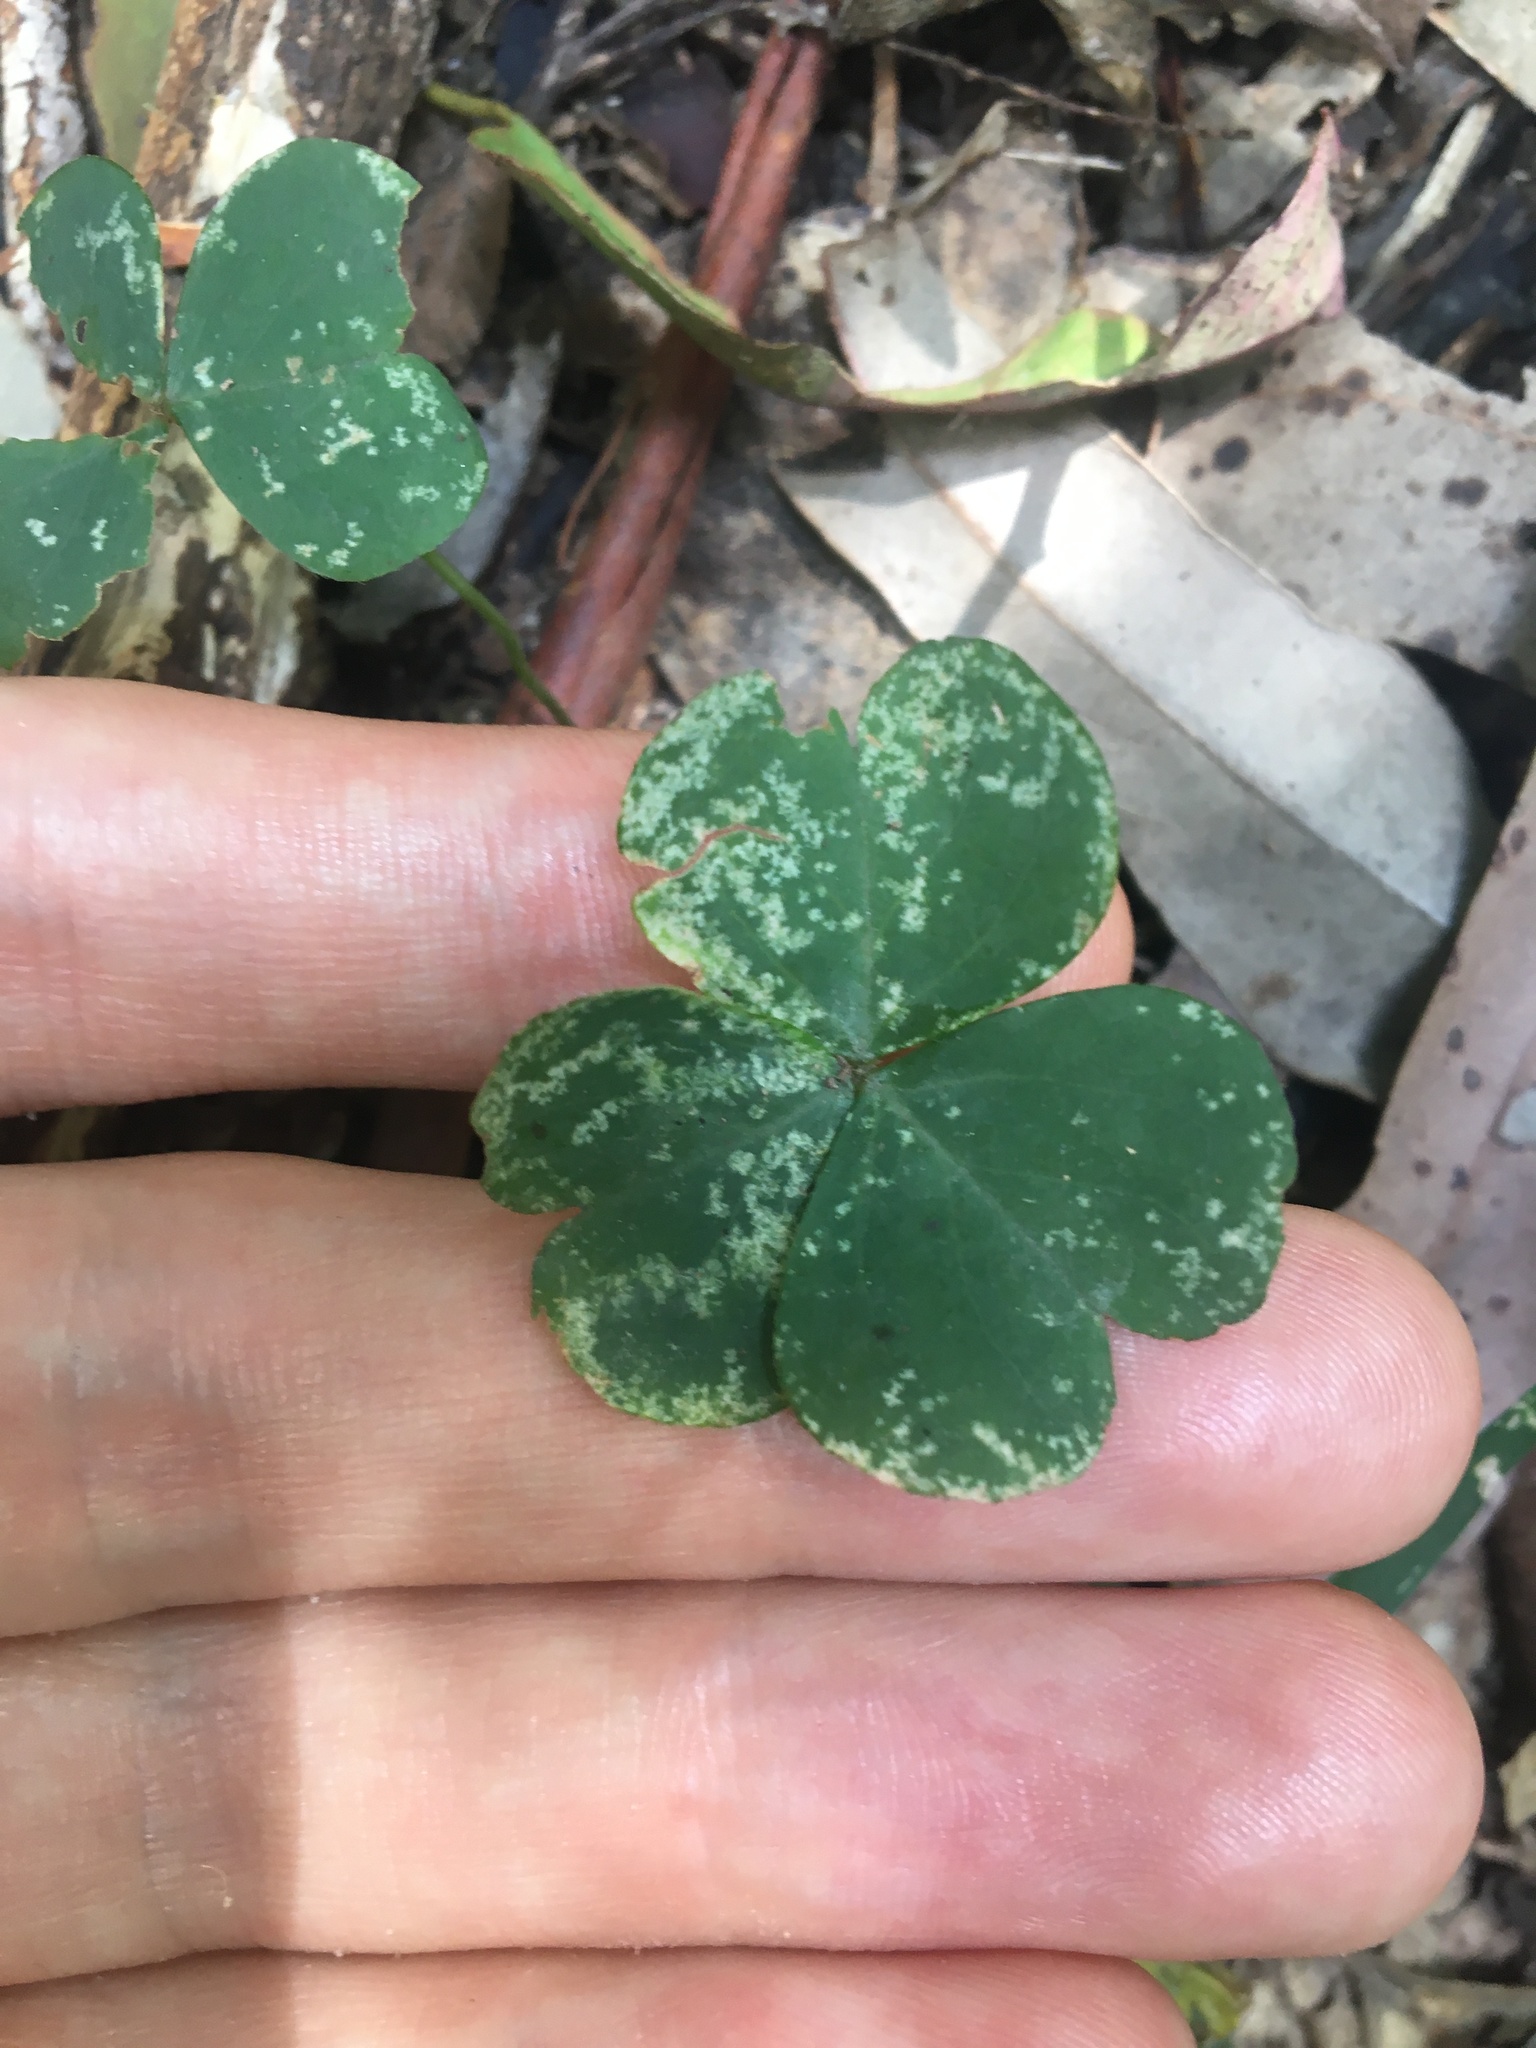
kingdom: Plantae
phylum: Tracheophyta
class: Magnoliopsida
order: Oxalidales
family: Oxalidaceae
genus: Oxalis
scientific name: Oxalis debilis
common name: Large-flowered pink-sorrel
